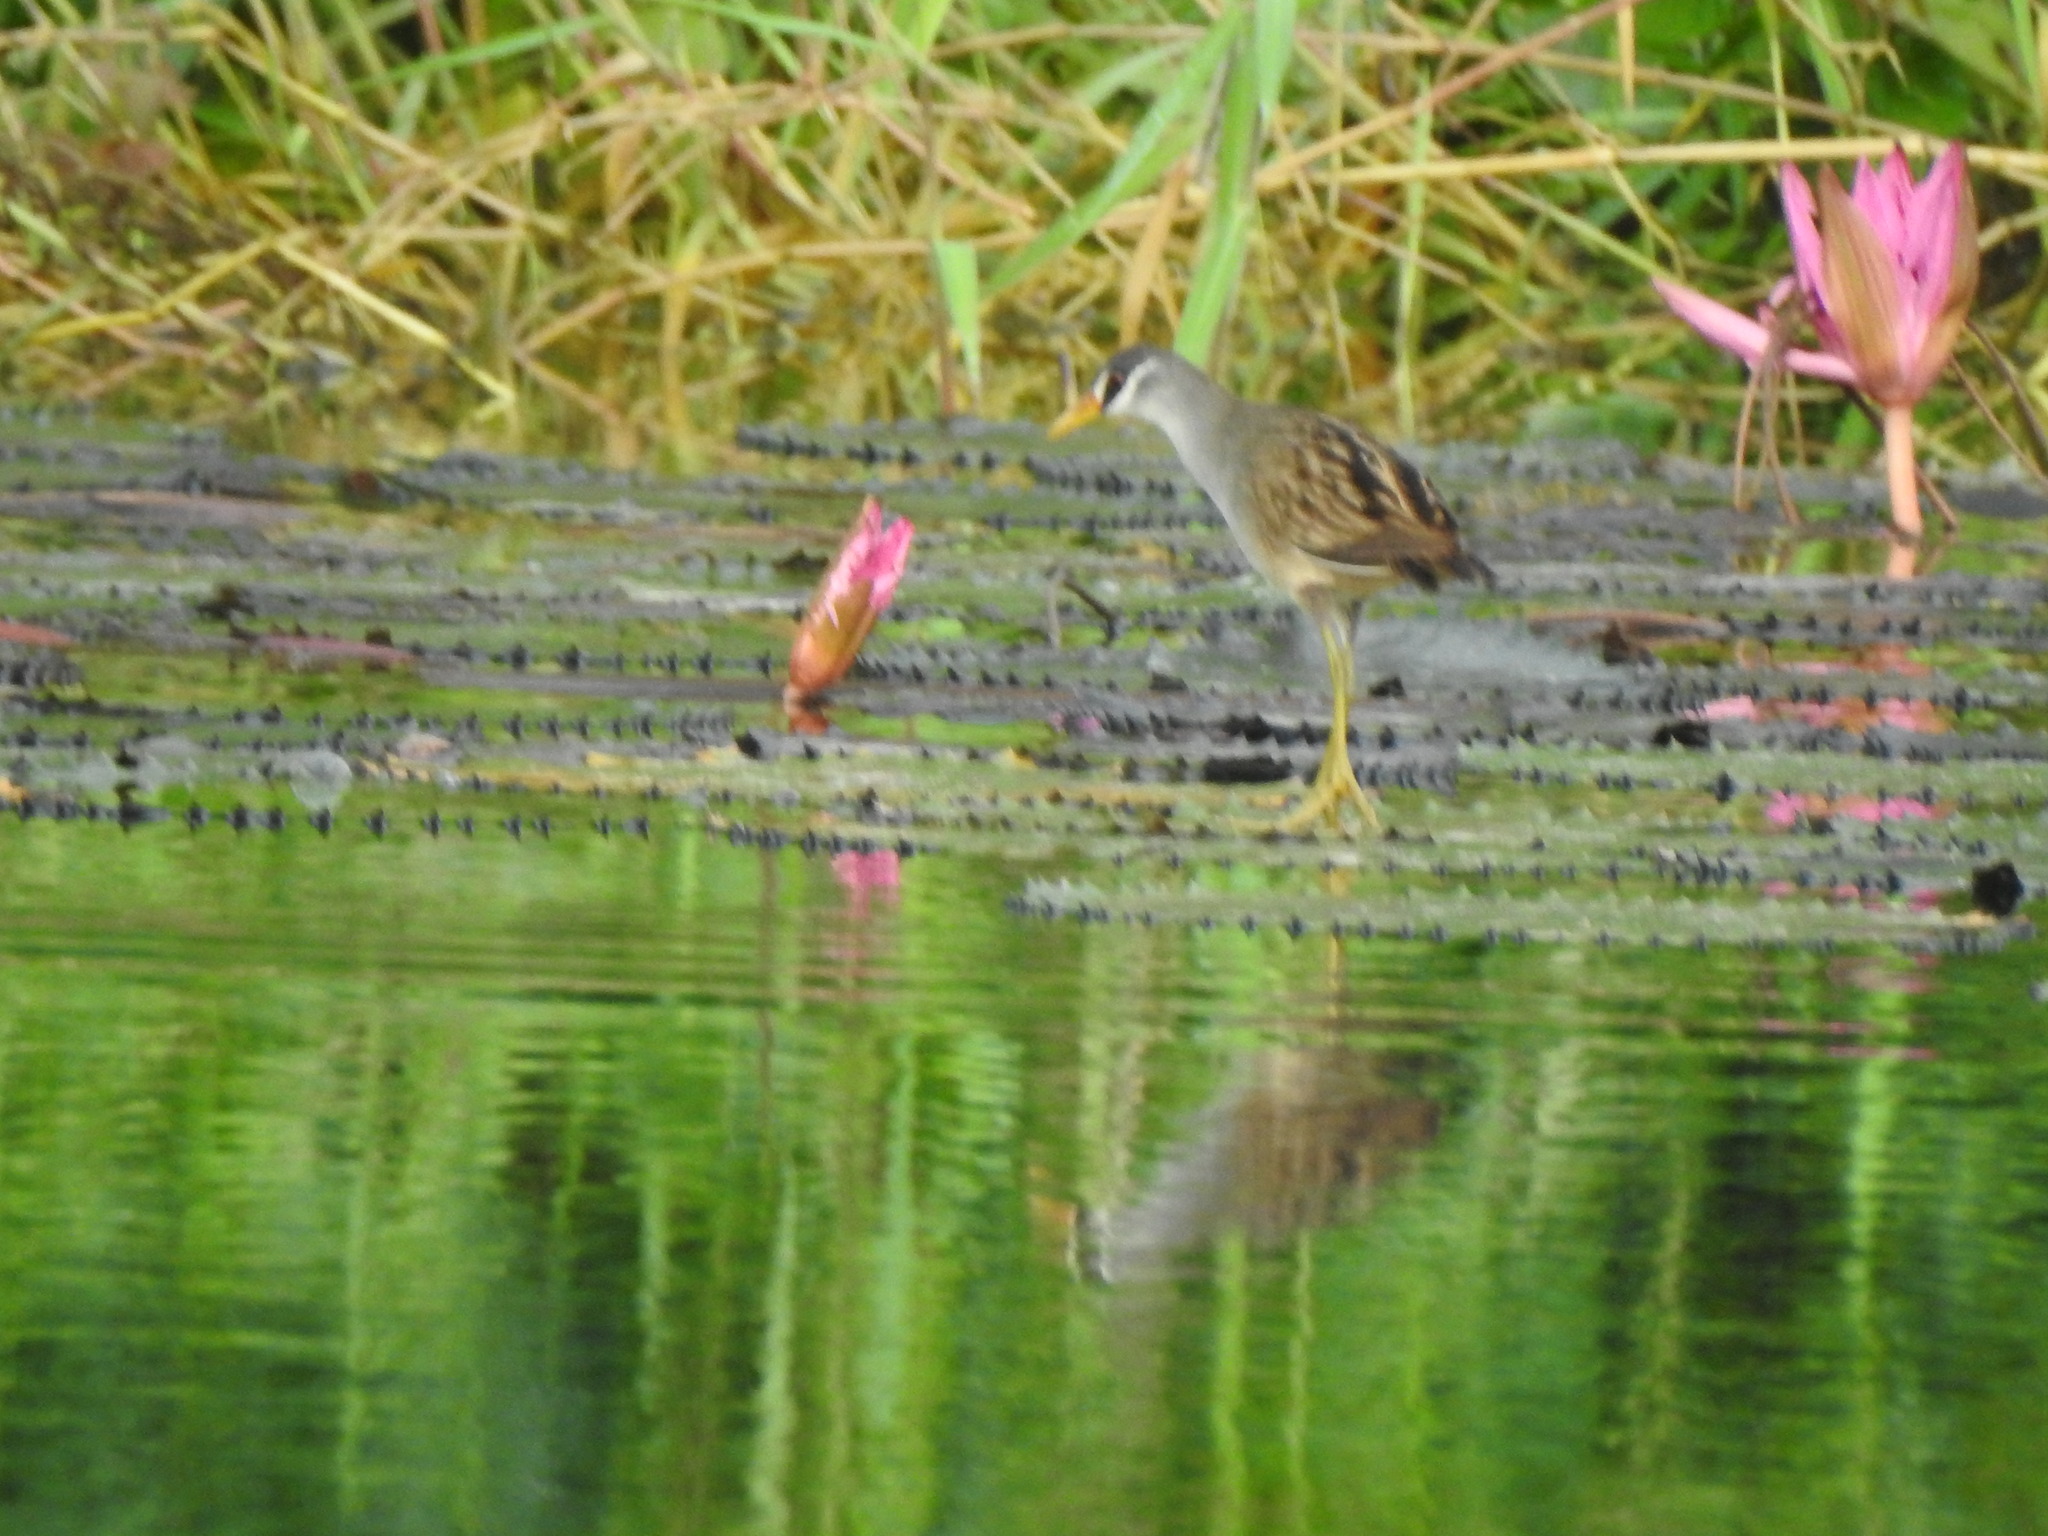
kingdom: Animalia
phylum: Chordata
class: Aves
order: Gruiformes
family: Rallidae
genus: Porzana
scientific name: Porzana cinerea
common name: White-browed crake
